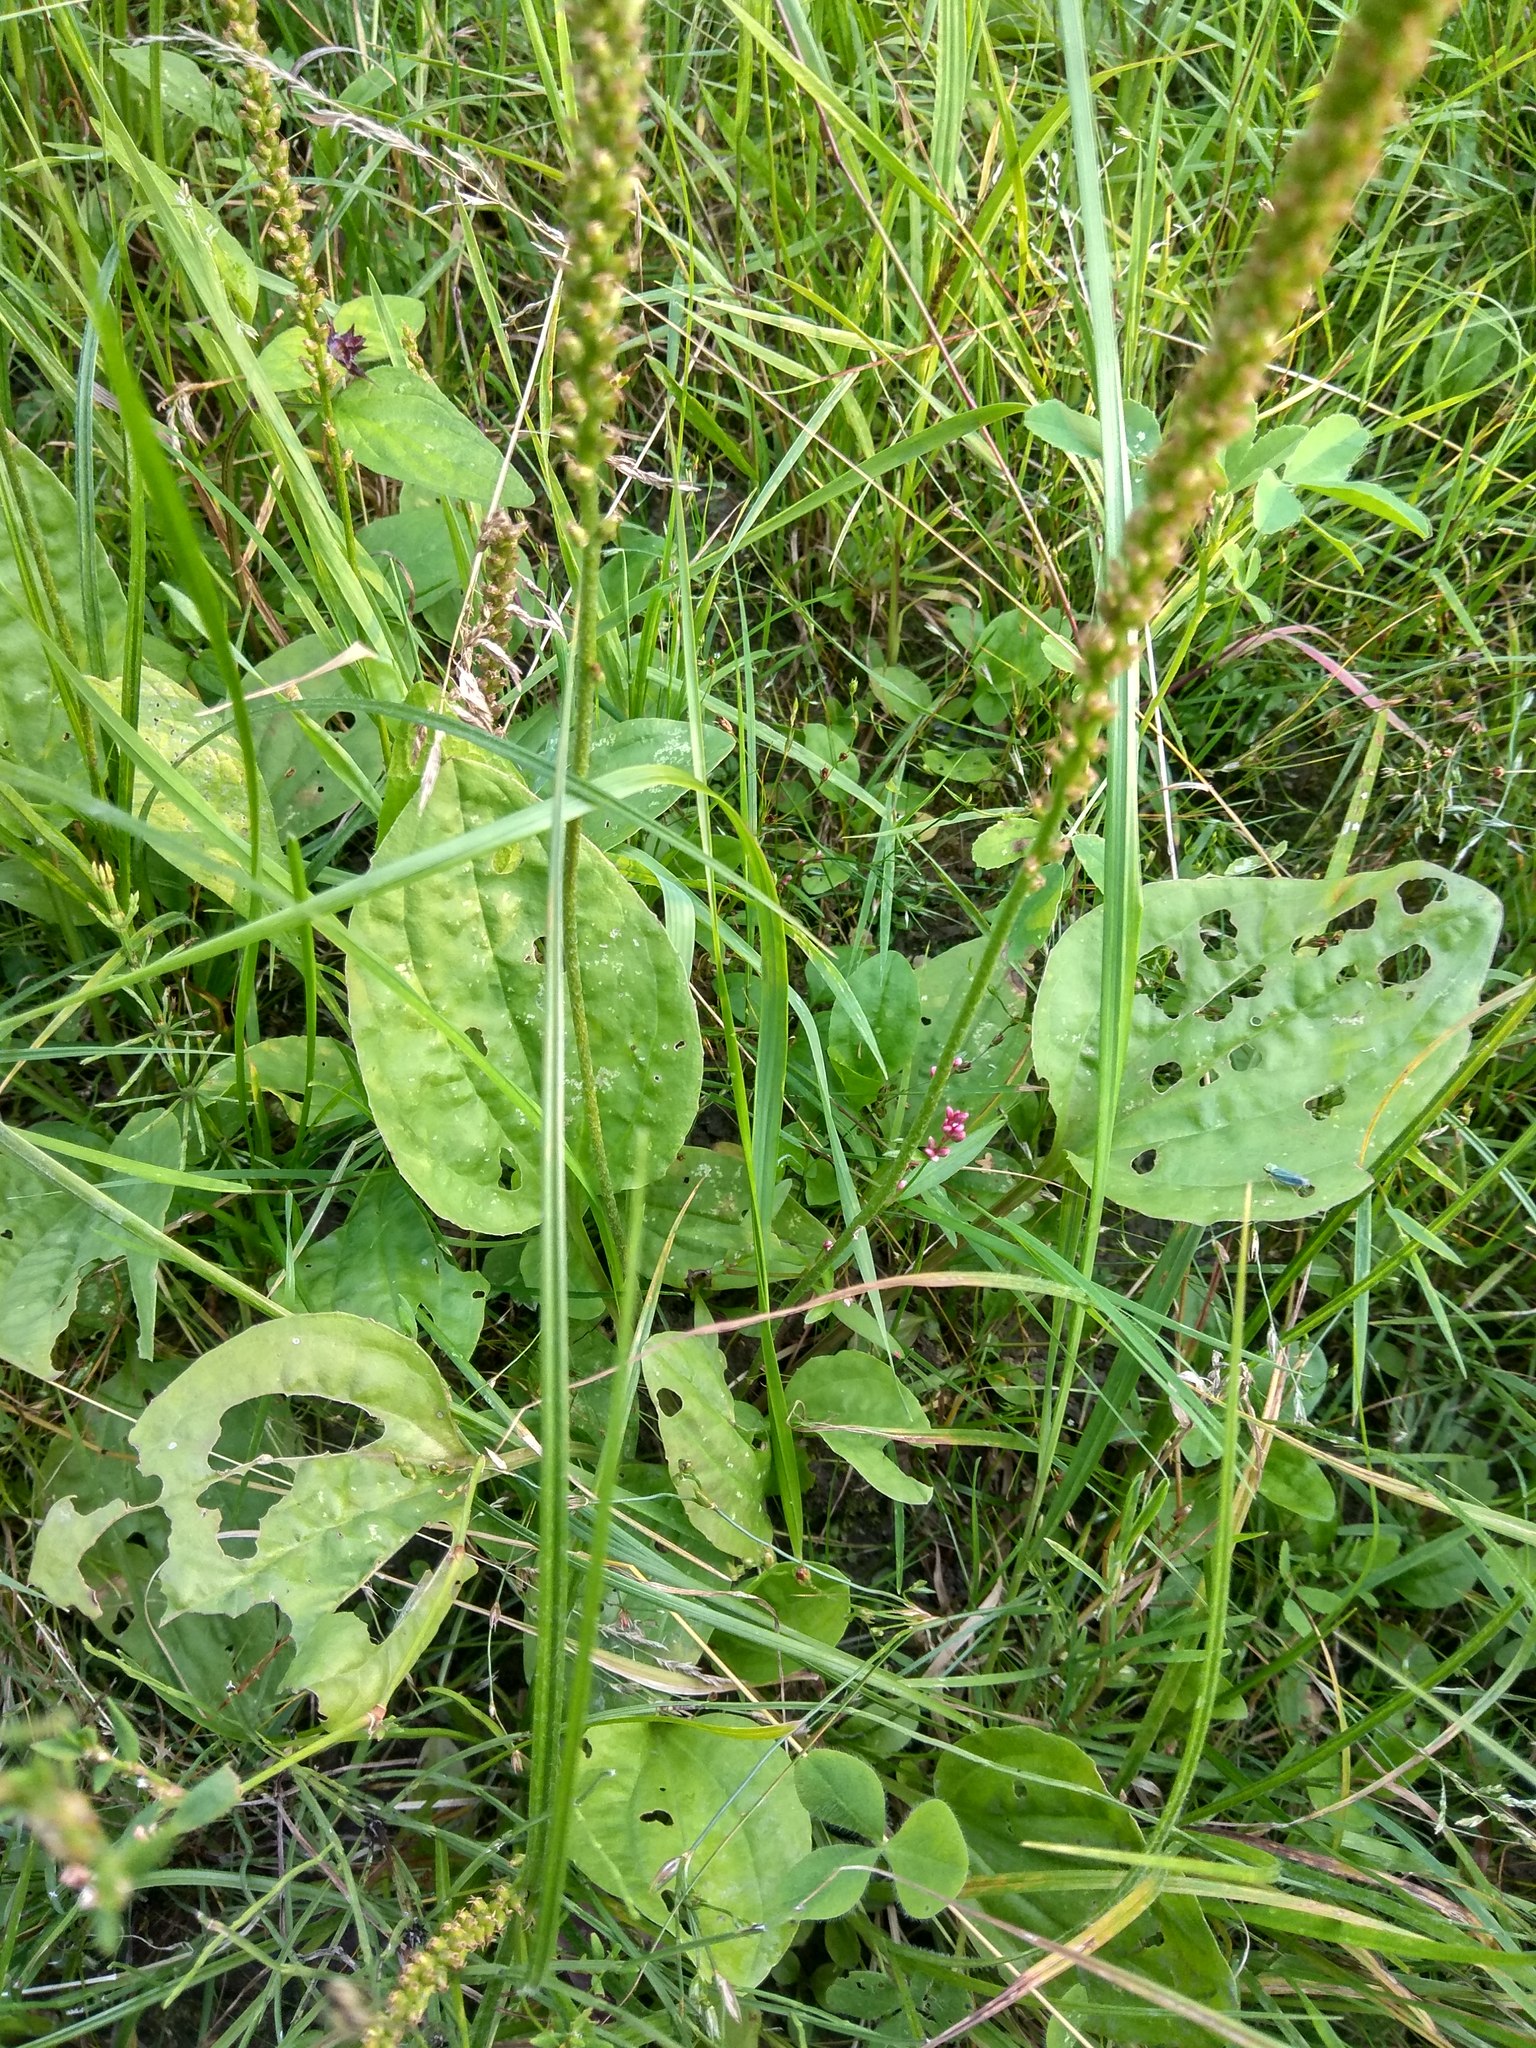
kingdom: Plantae
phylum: Tracheophyta
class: Magnoliopsida
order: Lamiales
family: Plantaginaceae
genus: Plantago
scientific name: Plantago major
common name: Common plantain
